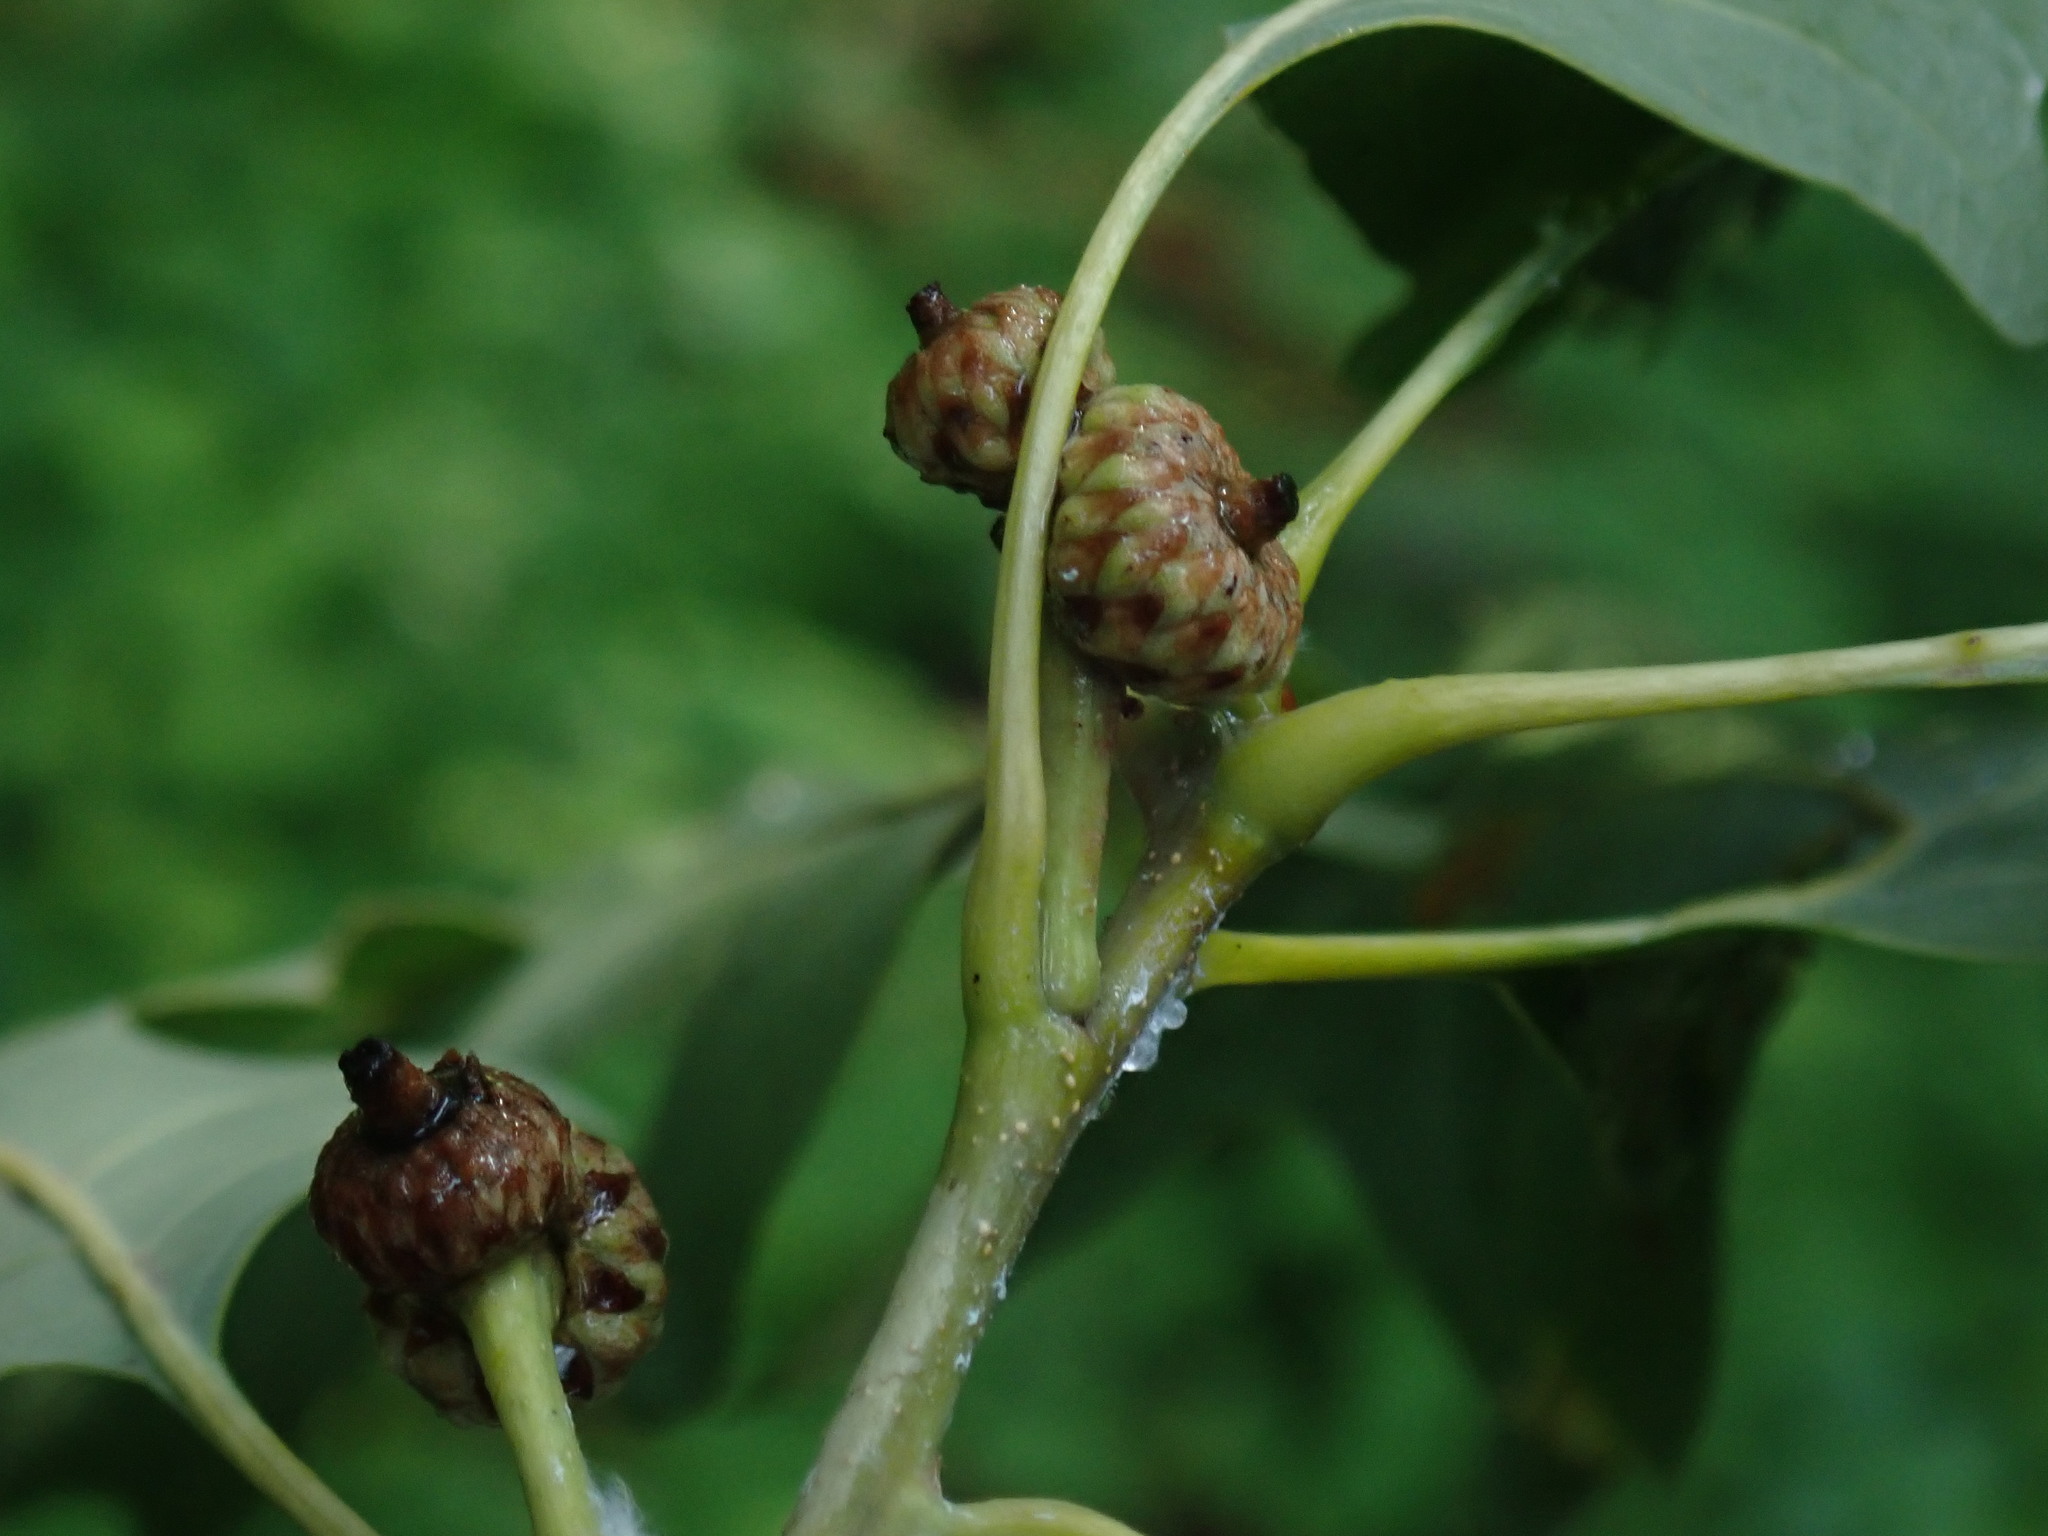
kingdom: Plantae
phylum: Tracheophyta
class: Magnoliopsida
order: Fagales
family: Fagaceae
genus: Quercus
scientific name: Quercus alba
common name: White oak
